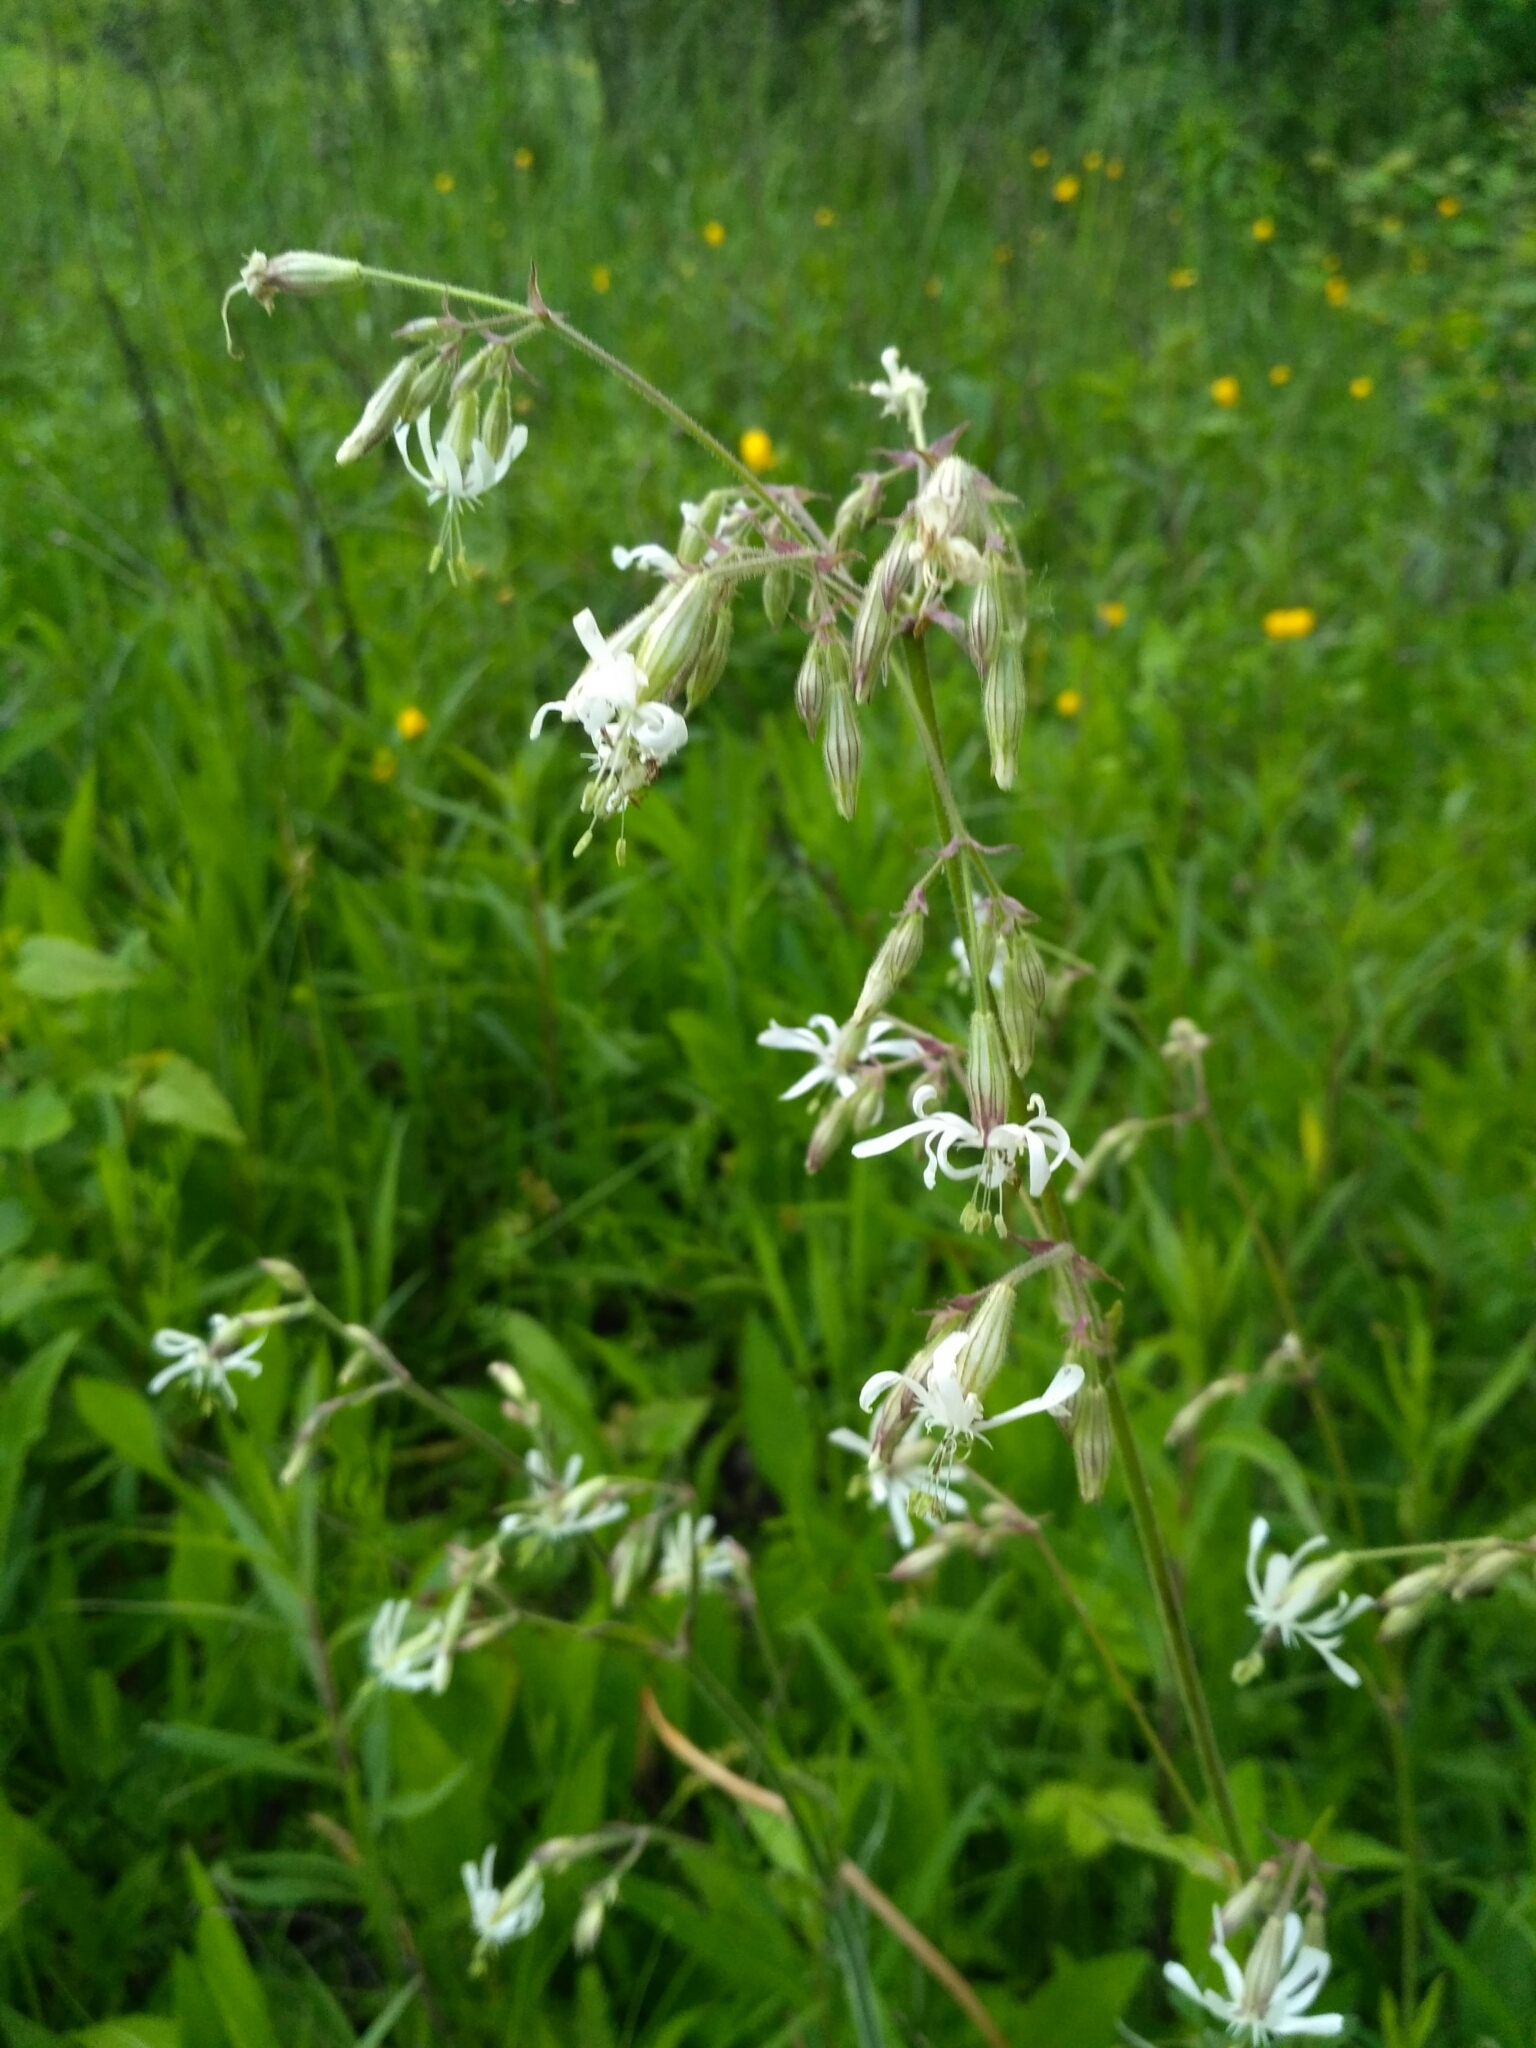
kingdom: Plantae
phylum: Tracheophyta
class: Magnoliopsida
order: Caryophyllales
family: Caryophyllaceae
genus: Silene
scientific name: Silene nutans
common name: Nottingham catchfly
